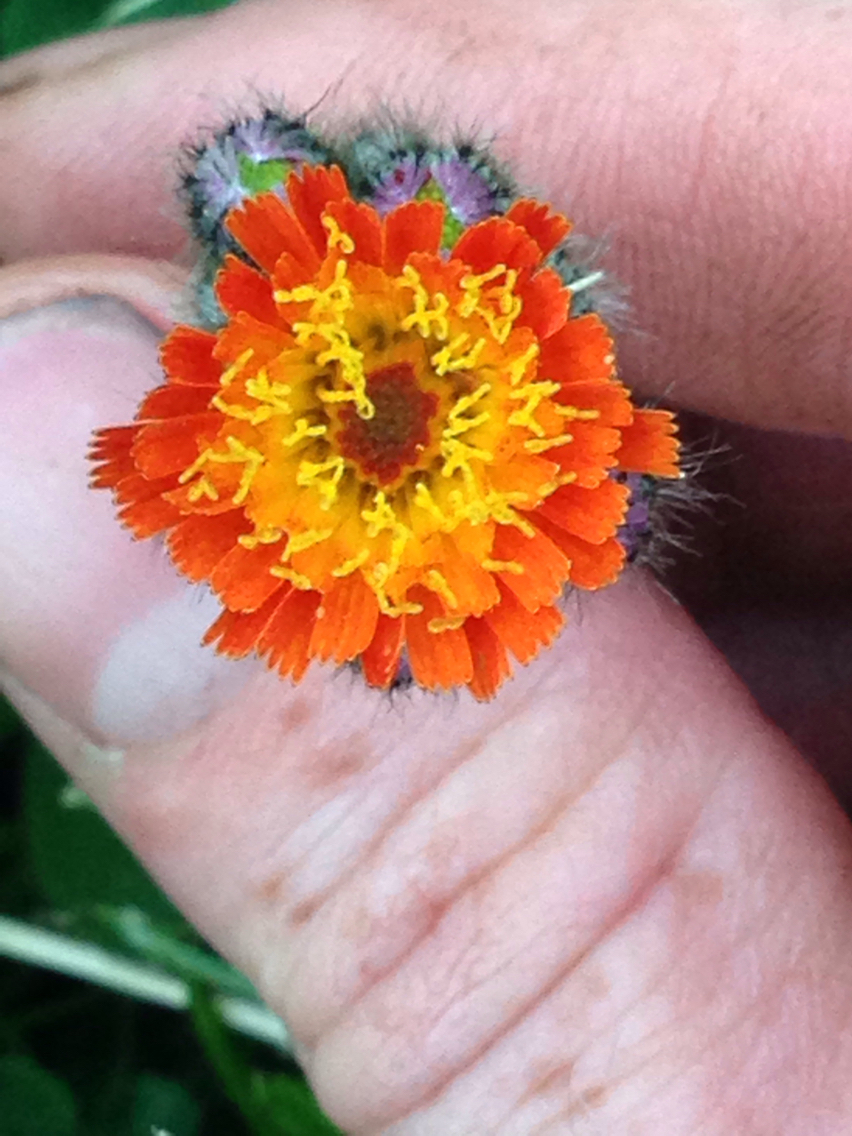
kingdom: Plantae
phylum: Tracheophyta
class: Magnoliopsida
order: Asterales
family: Asteraceae
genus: Pilosella
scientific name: Pilosella aurantiaca
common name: Fox-and-cubs
